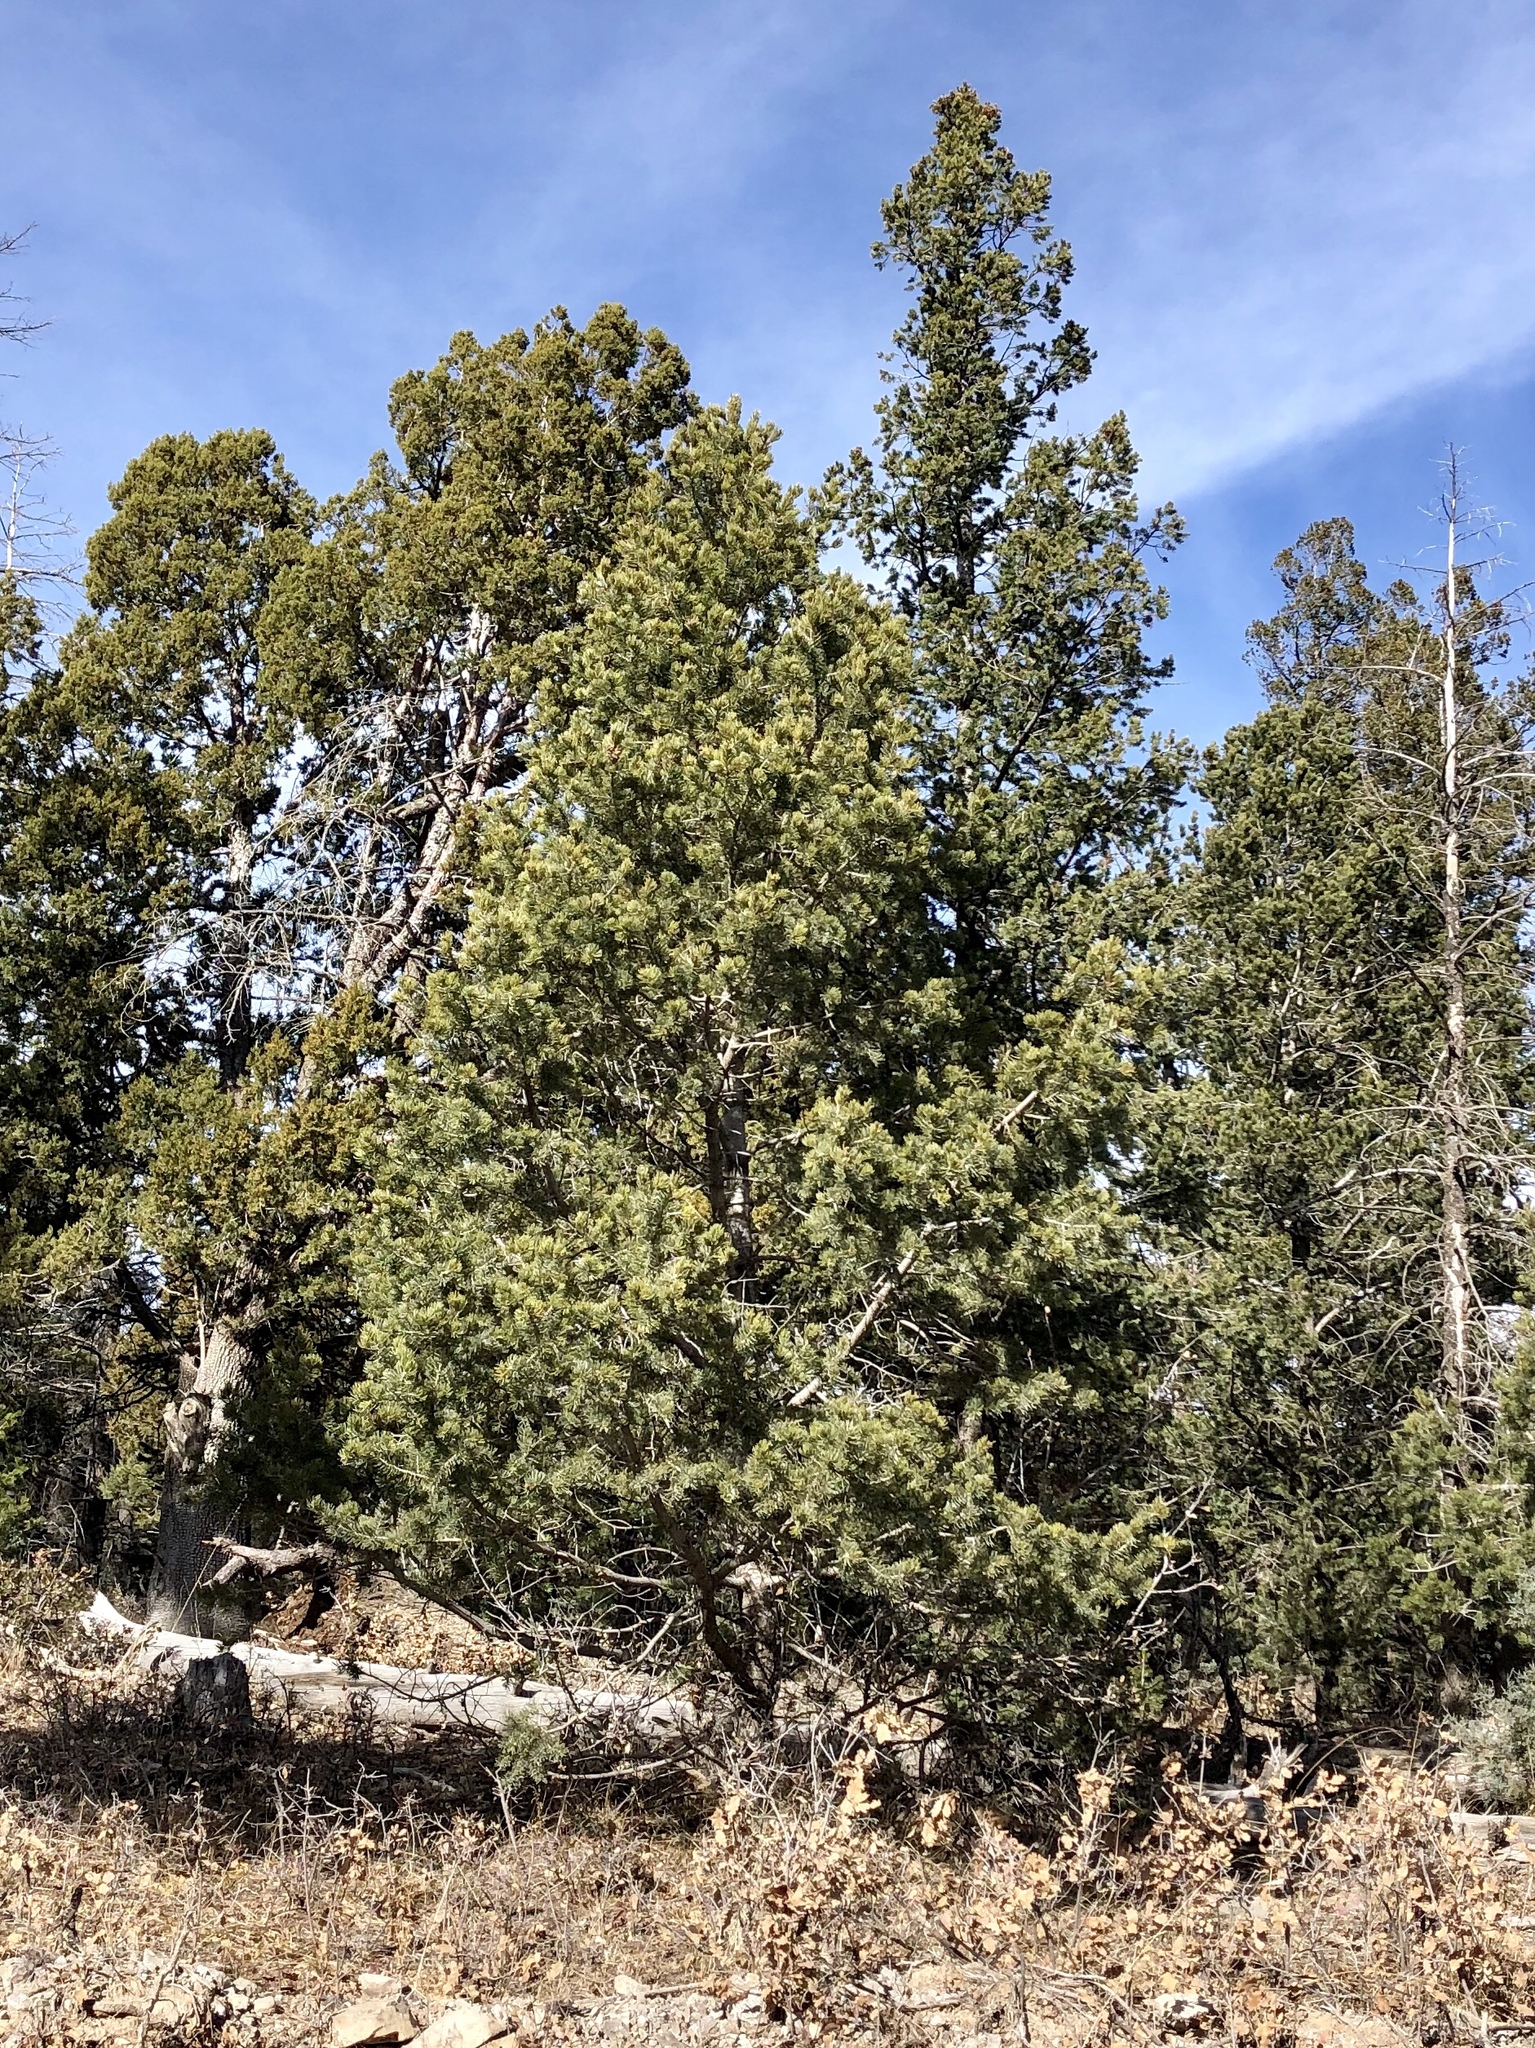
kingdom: Plantae
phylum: Tracheophyta
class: Pinopsida
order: Pinales
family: Pinaceae
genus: Pinus
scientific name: Pinus edulis
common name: Colorado pinyon
